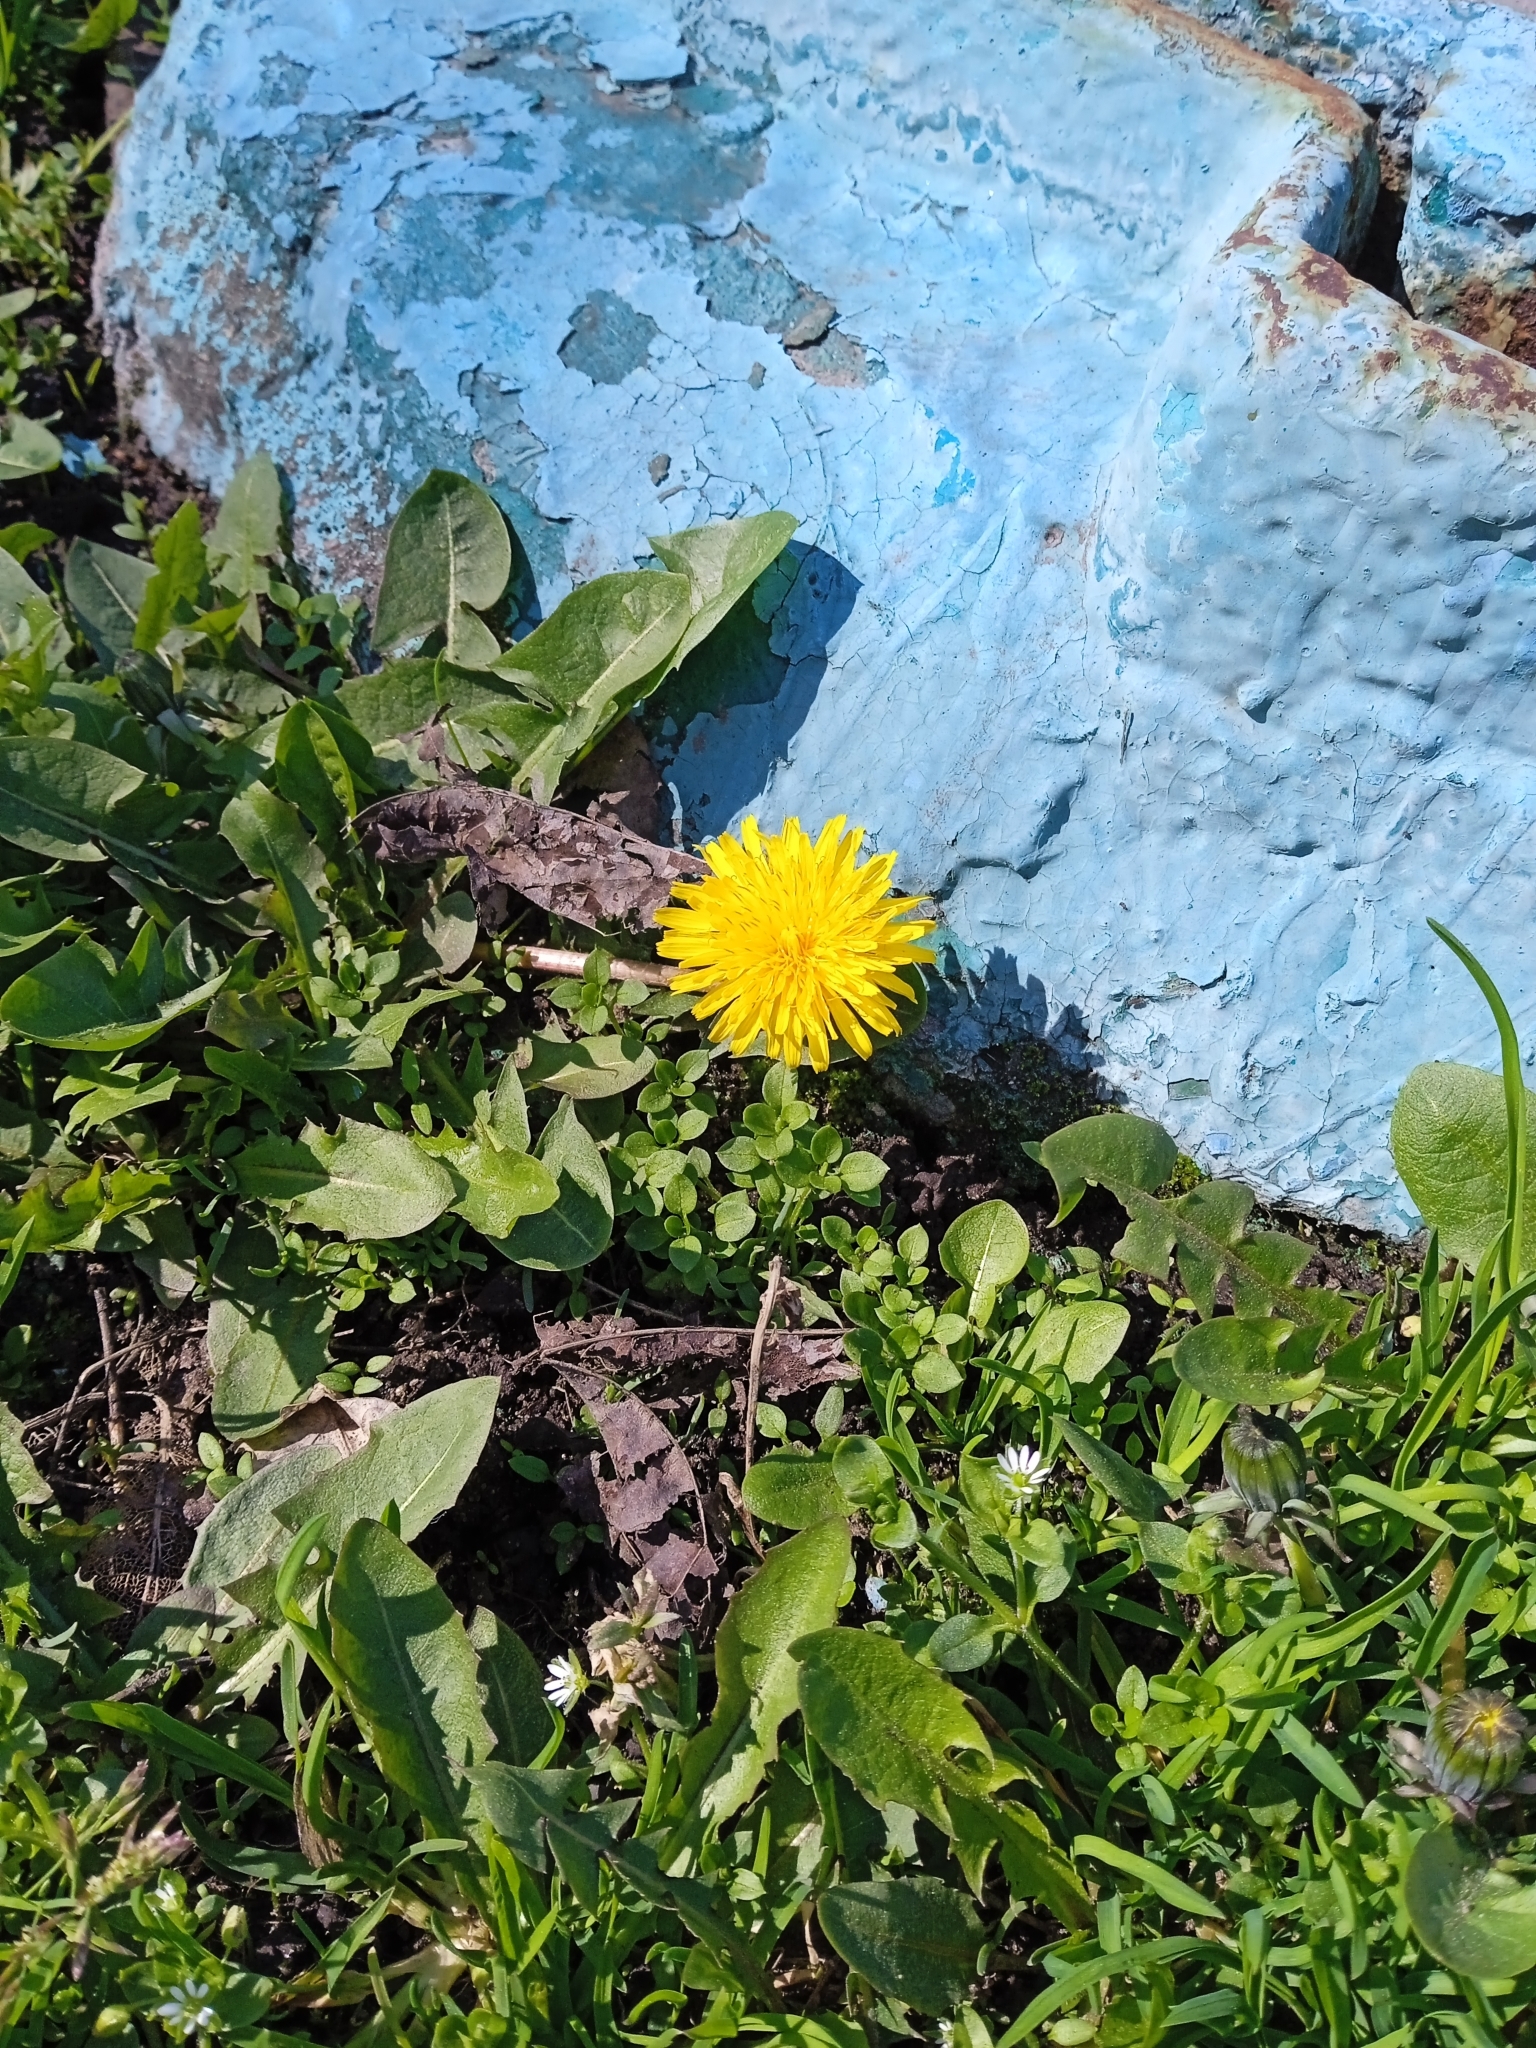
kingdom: Plantae
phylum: Tracheophyta
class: Magnoliopsida
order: Asterales
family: Asteraceae
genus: Taraxacum
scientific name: Taraxacum officinale
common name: Common dandelion
